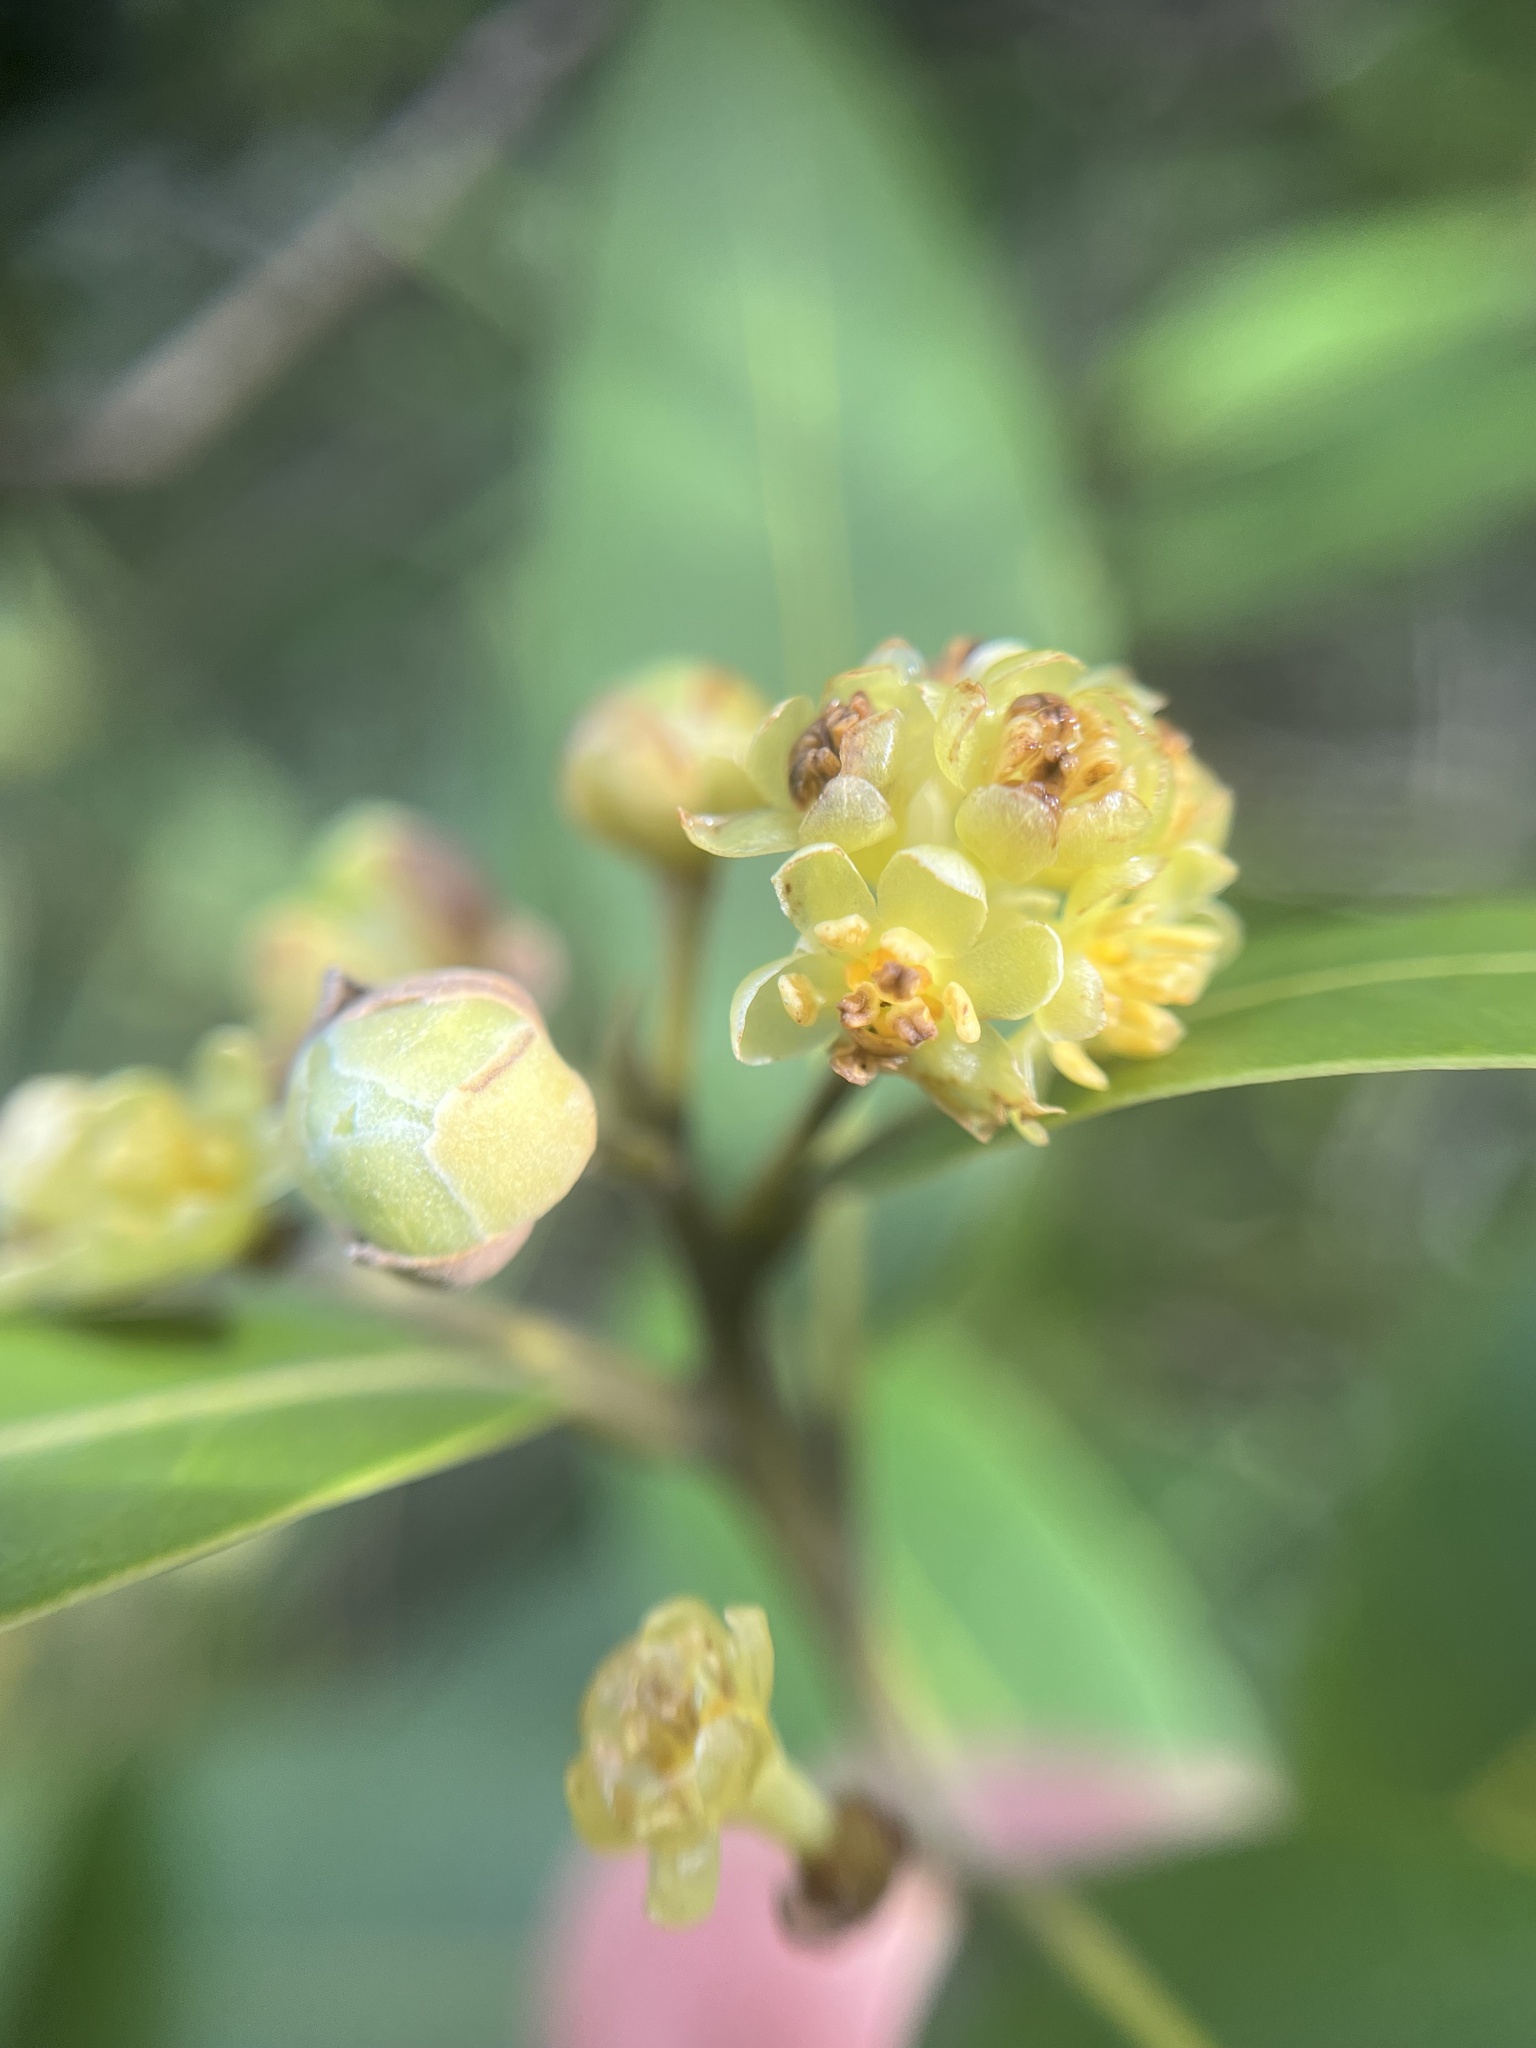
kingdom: Plantae
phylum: Tracheophyta
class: Magnoliopsida
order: Laurales
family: Lauraceae
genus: Umbellularia
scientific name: Umbellularia californica
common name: California bay
